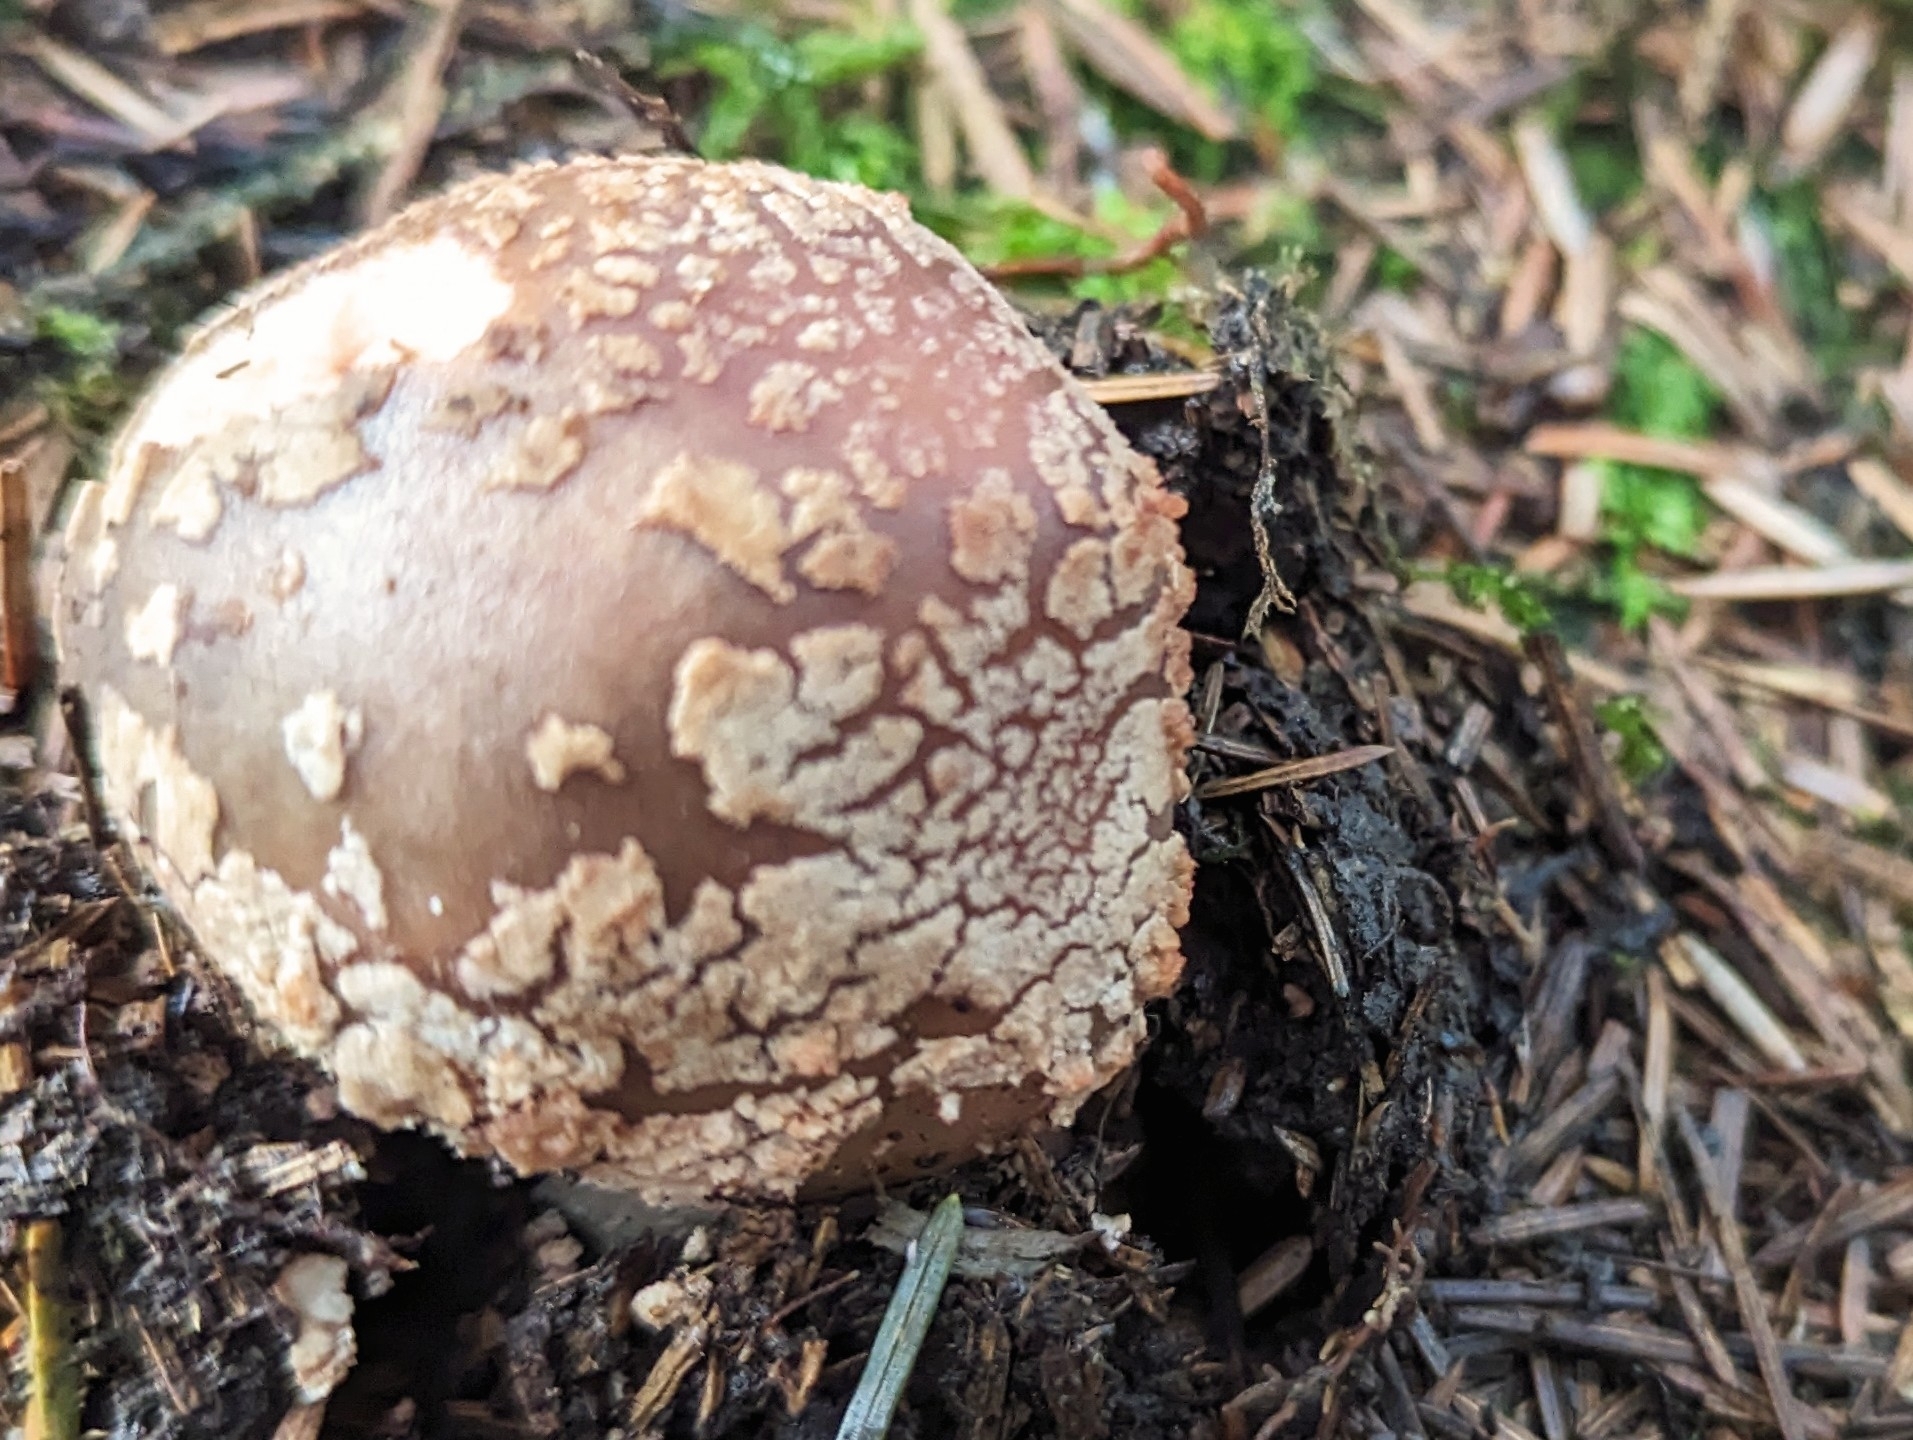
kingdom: Fungi
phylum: Basidiomycota
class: Agaricomycetes
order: Agaricales
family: Amanitaceae
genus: Amanita
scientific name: Amanita rubescens
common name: Blusher
